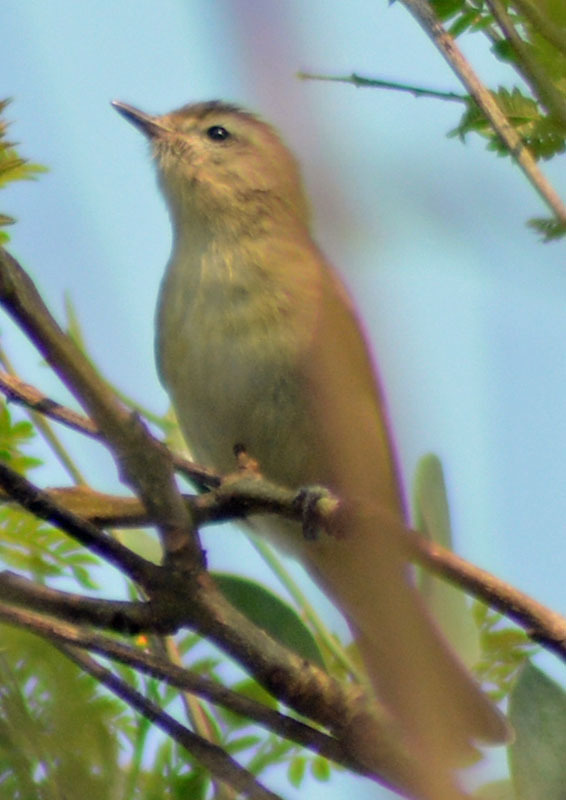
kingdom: Animalia
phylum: Chordata
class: Aves
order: Passeriformes
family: Vireonidae
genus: Vireo
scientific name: Vireo gilvus
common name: Warbling vireo
